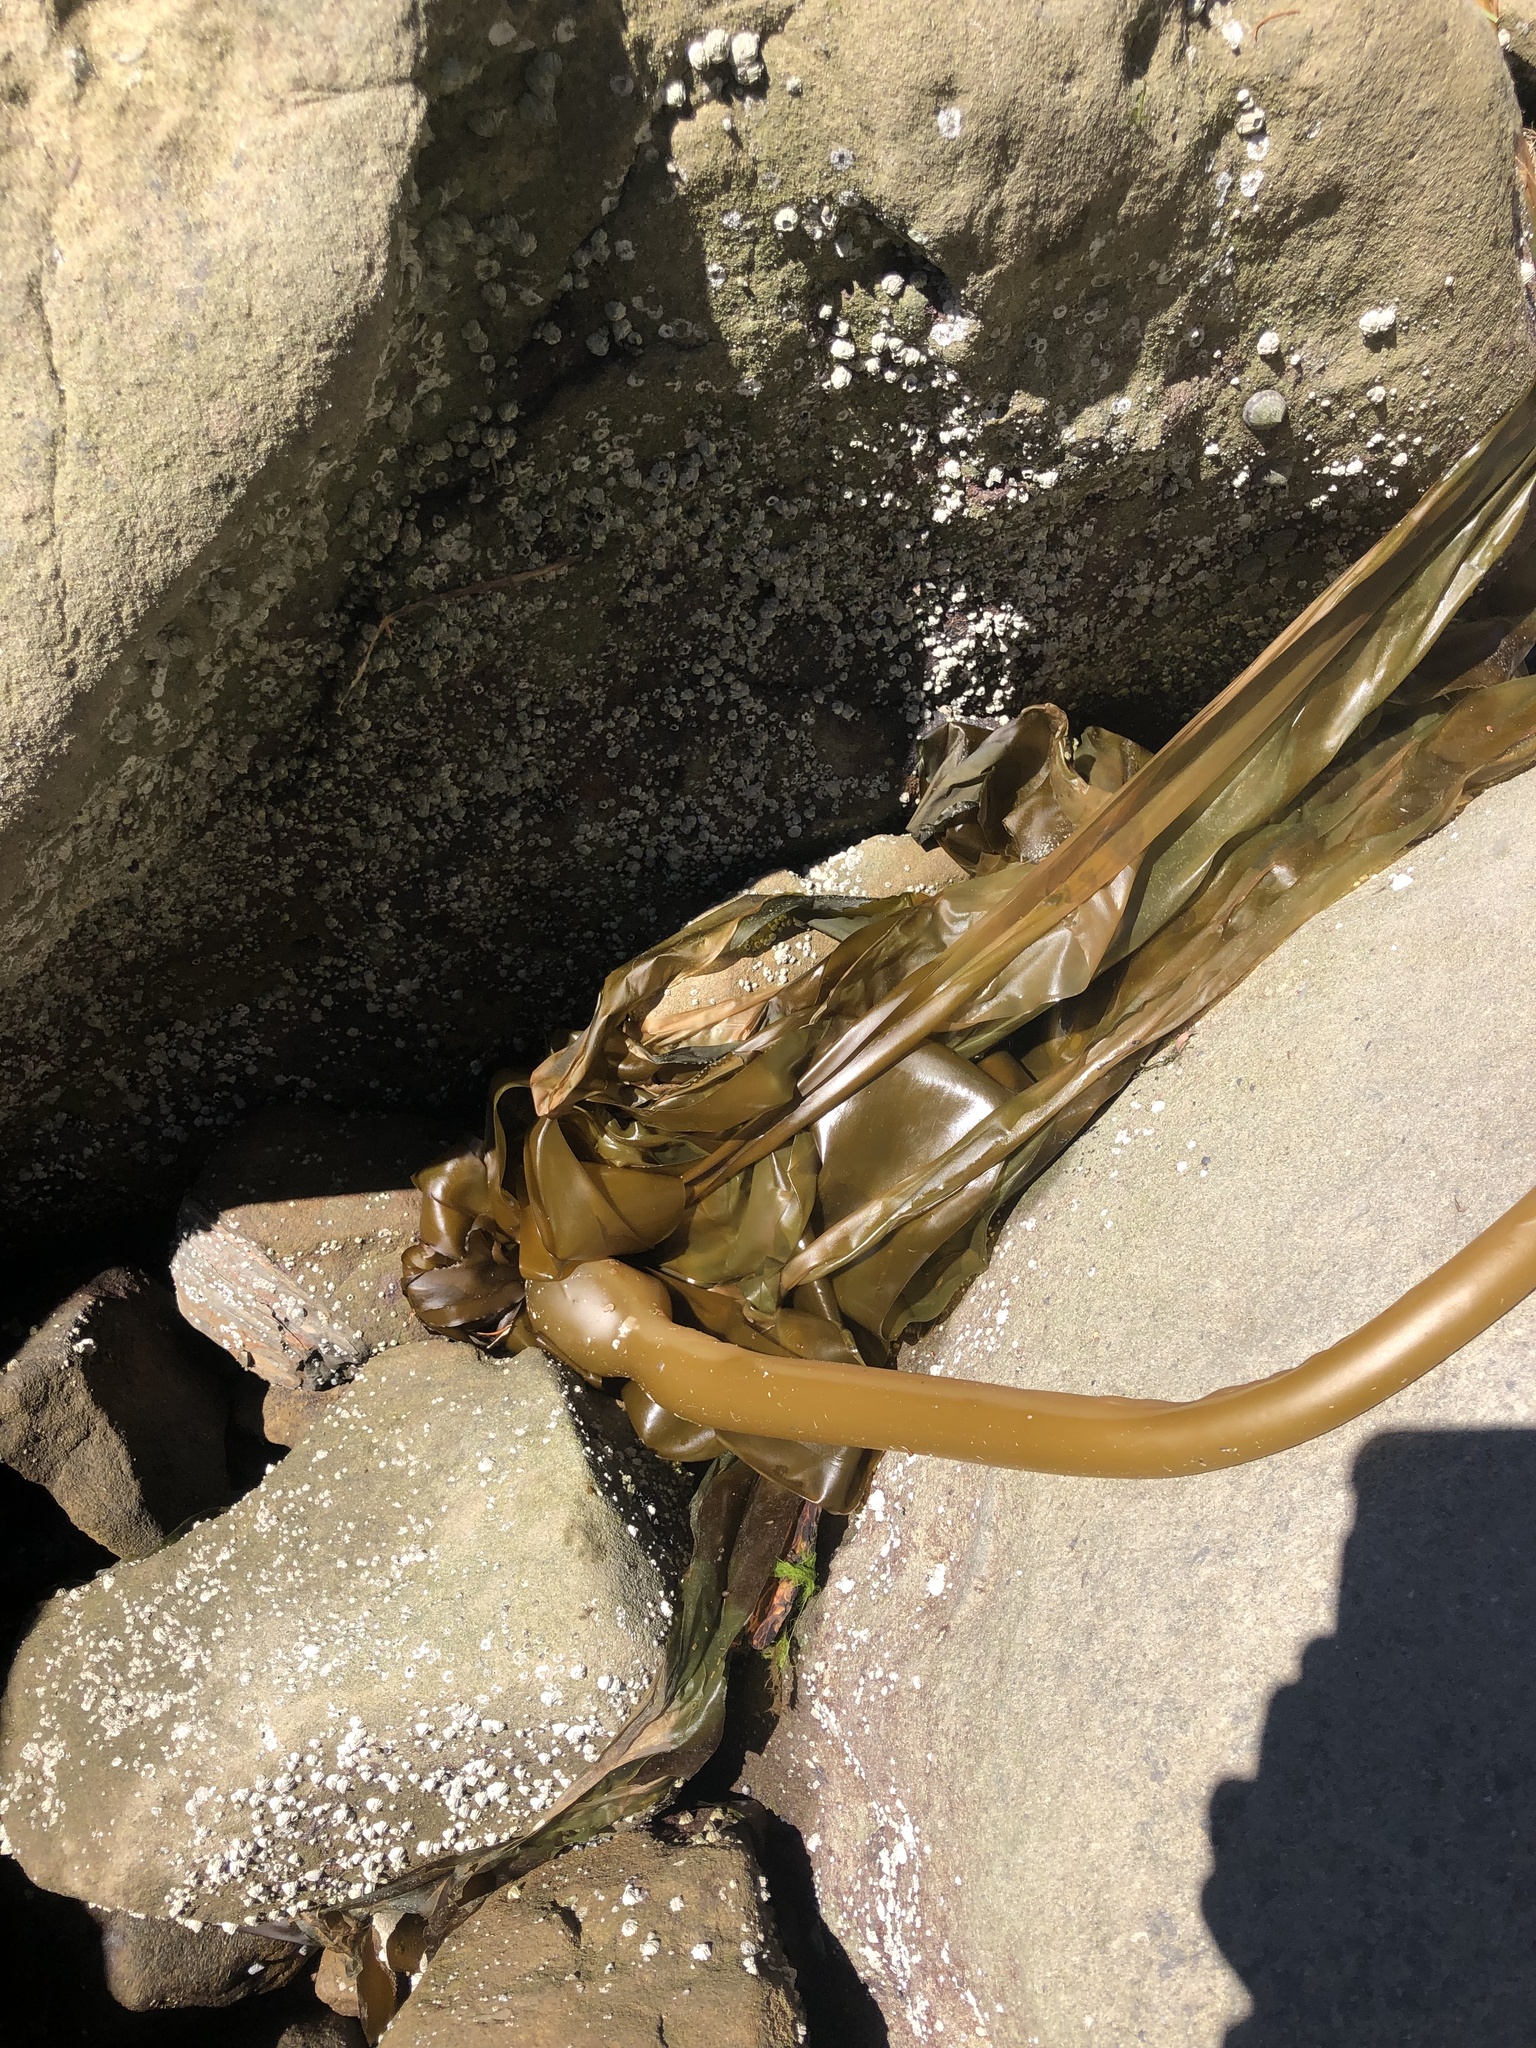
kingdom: Chromista
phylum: Ochrophyta
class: Phaeophyceae
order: Laminariales
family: Laminariaceae
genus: Nereocystis
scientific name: Nereocystis luetkeana
